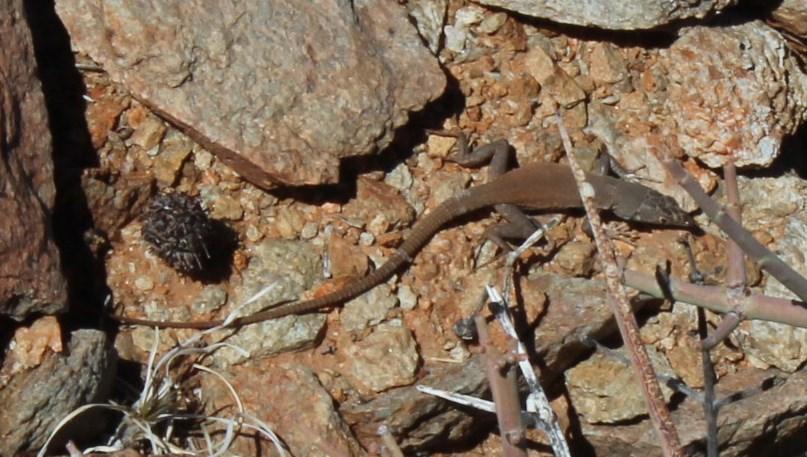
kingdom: Animalia
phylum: Chordata
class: Squamata
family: Lacertidae
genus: Pedioplanis
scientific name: Pedioplanis inornata
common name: Plain sand lizard
